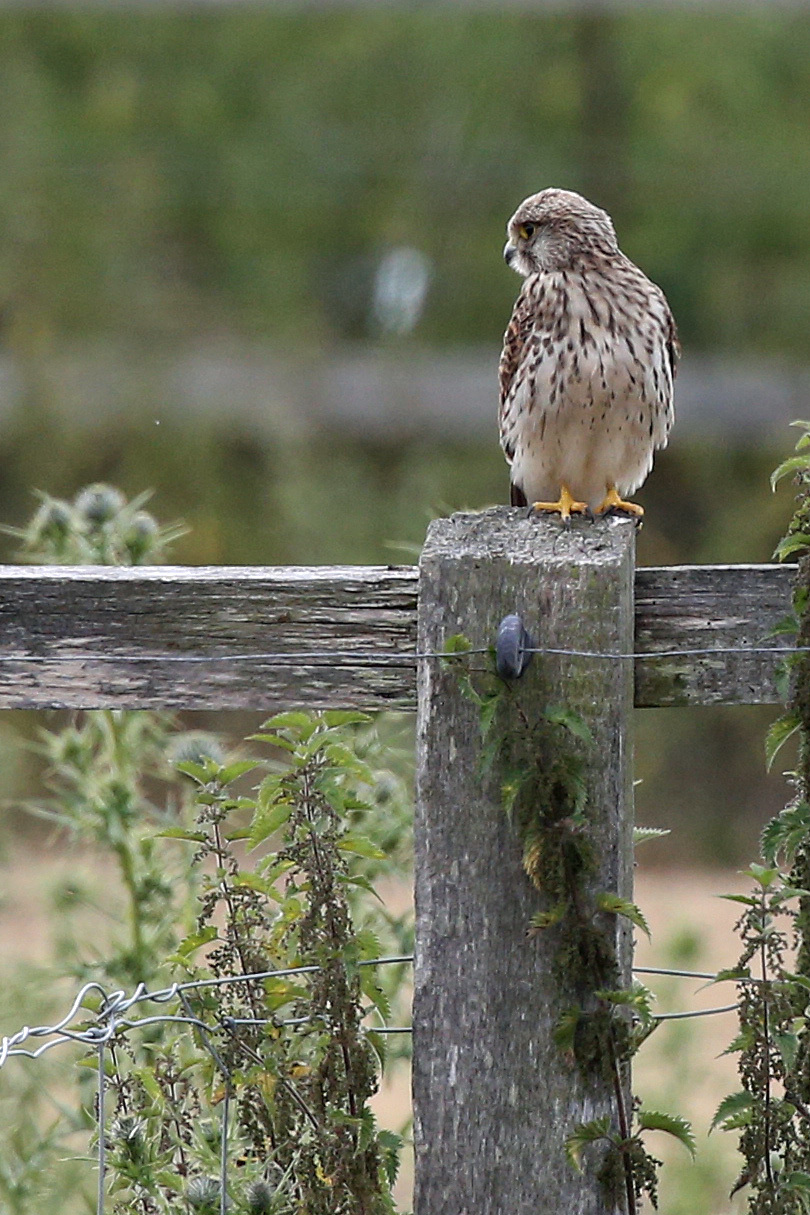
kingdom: Animalia
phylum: Chordata
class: Aves
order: Falconiformes
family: Falconidae
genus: Falco
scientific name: Falco tinnunculus
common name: Common kestrel
